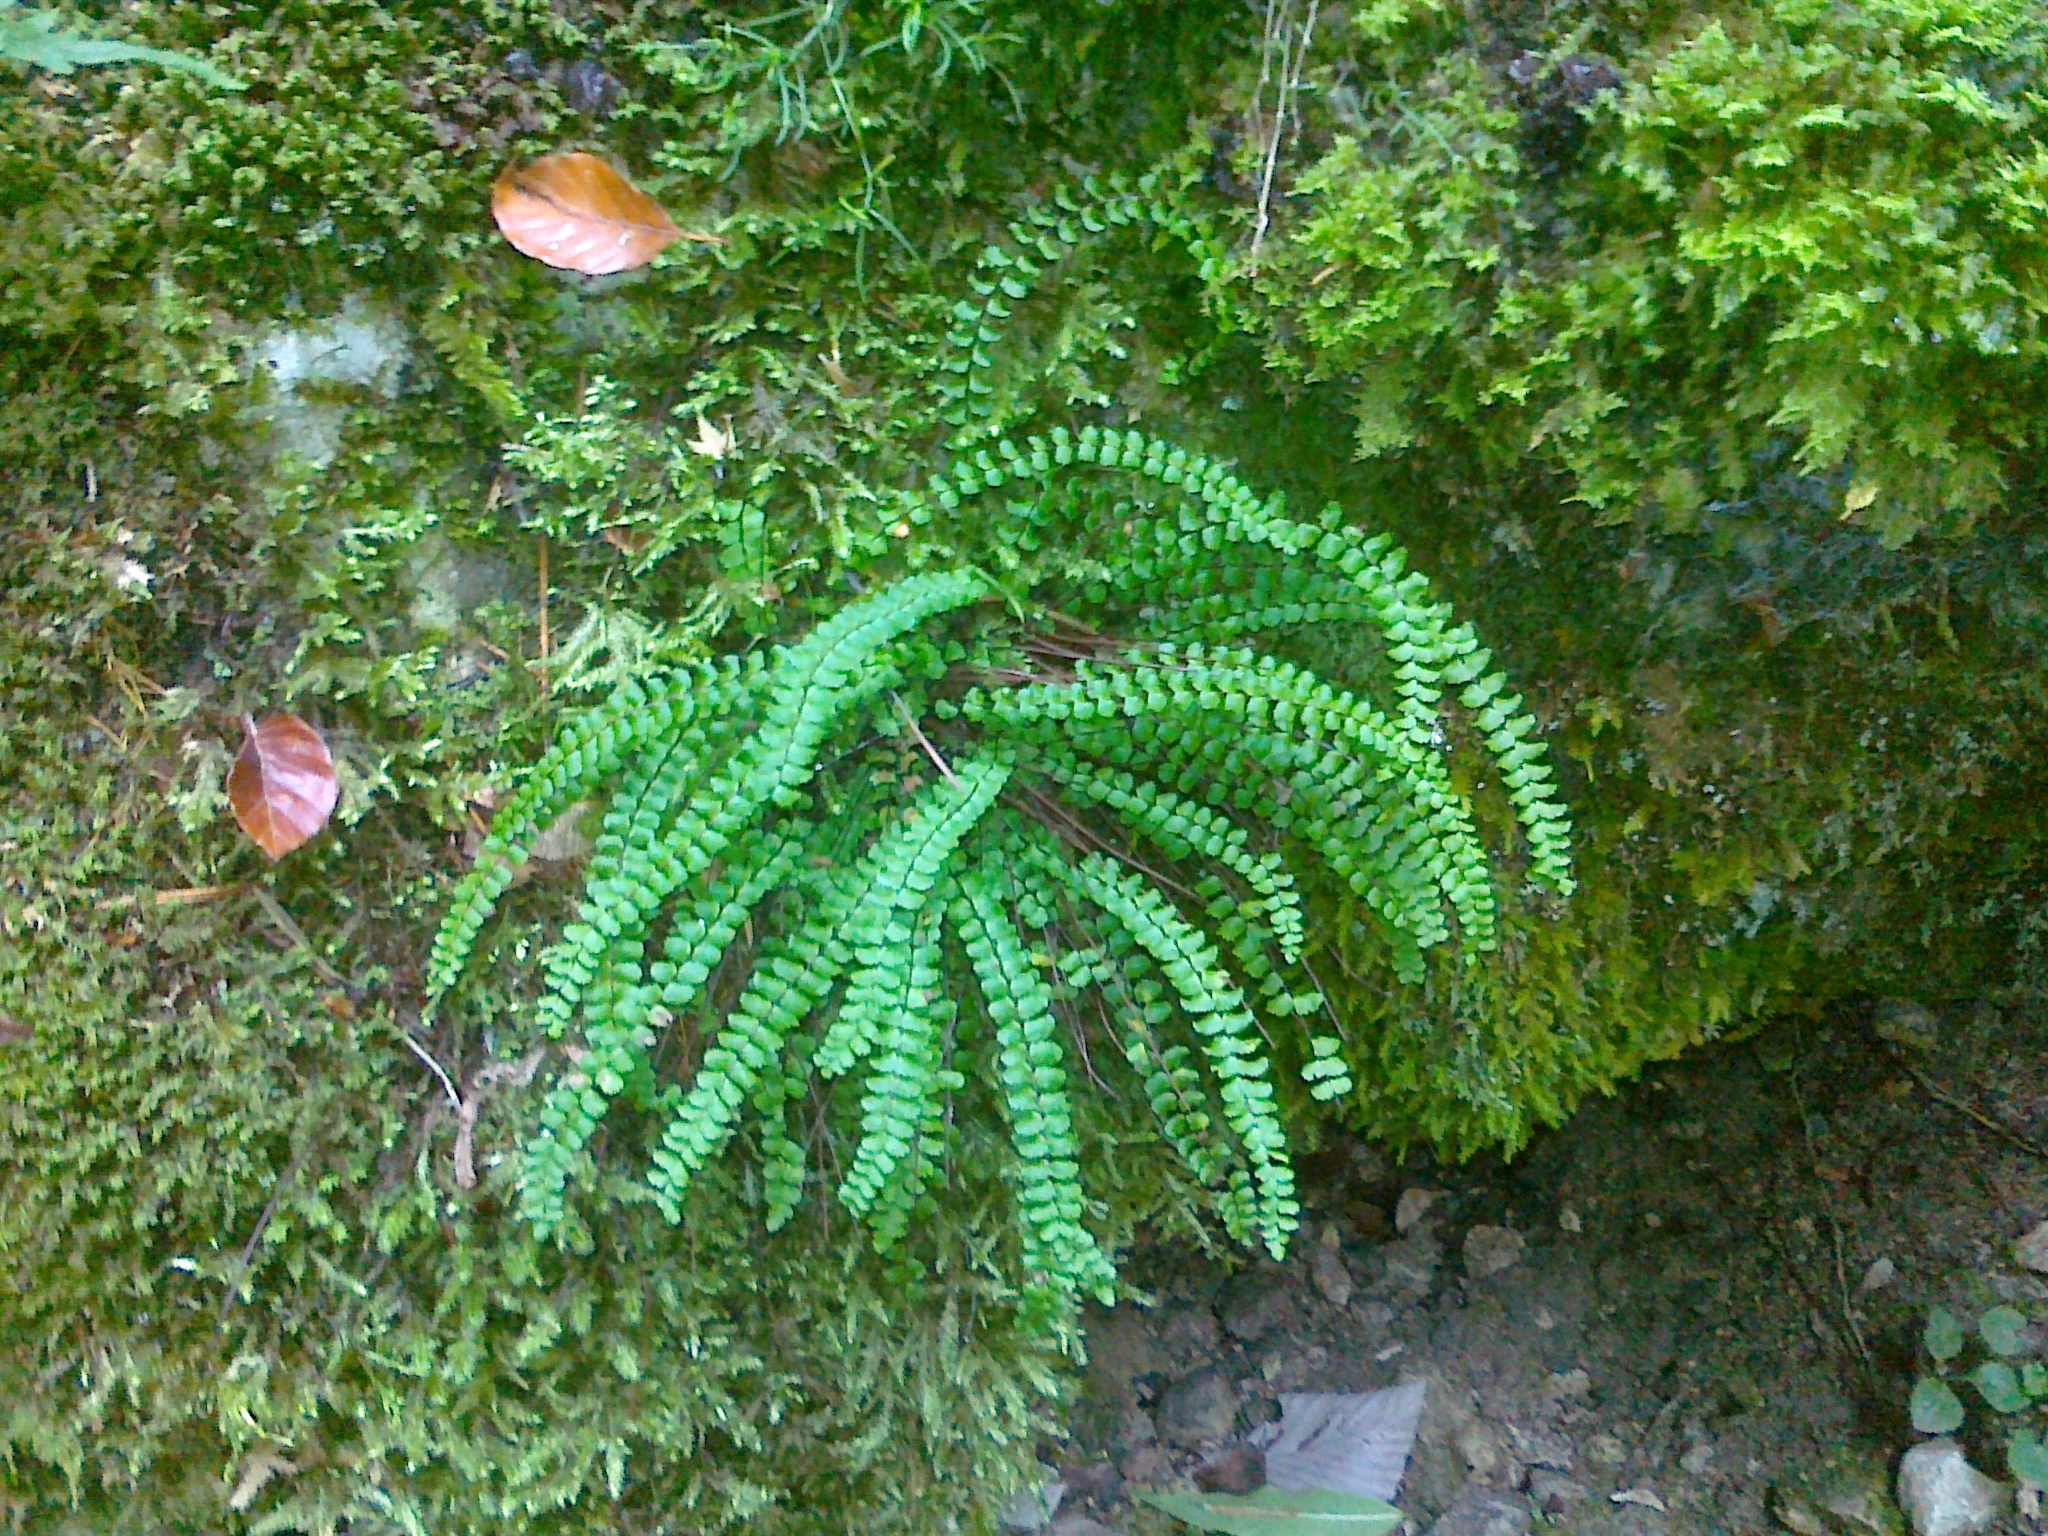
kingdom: Plantae
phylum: Tracheophyta
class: Polypodiopsida
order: Polypodiales
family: Aspleniaceae
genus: Asplenium
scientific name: Asplenium quadrivalens
